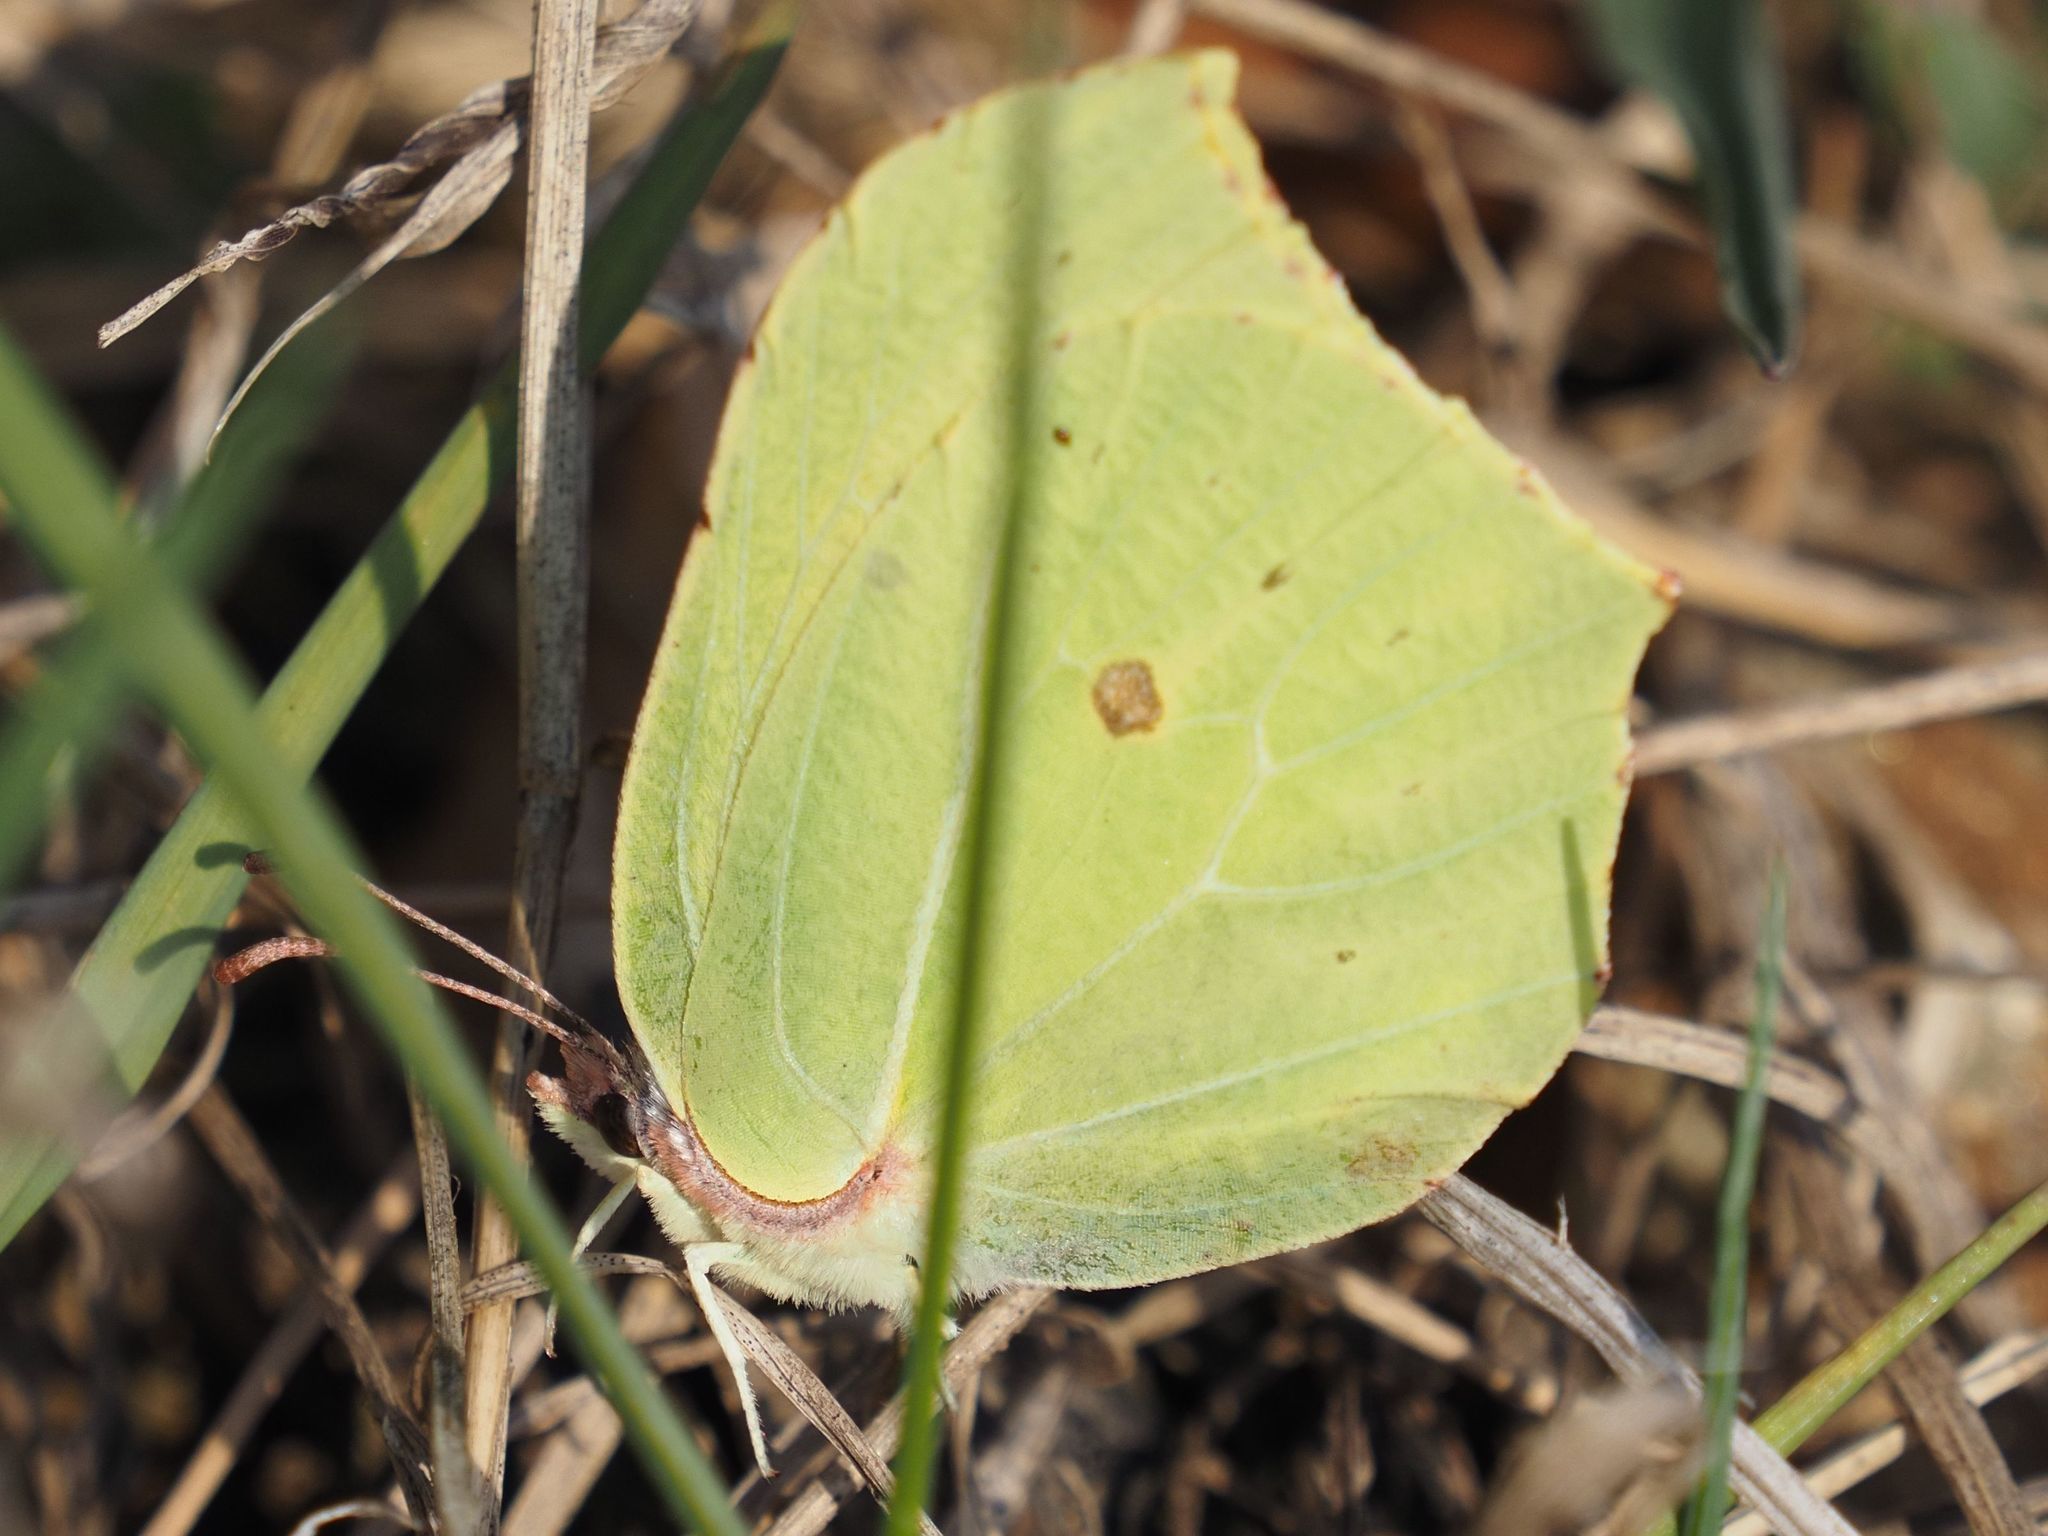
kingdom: Animalia
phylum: Arthropoda
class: Insecta
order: Lepidoptera
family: Pieridae
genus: Gonepteryx
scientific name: Gonepteryx rhamni
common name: Brimstone
